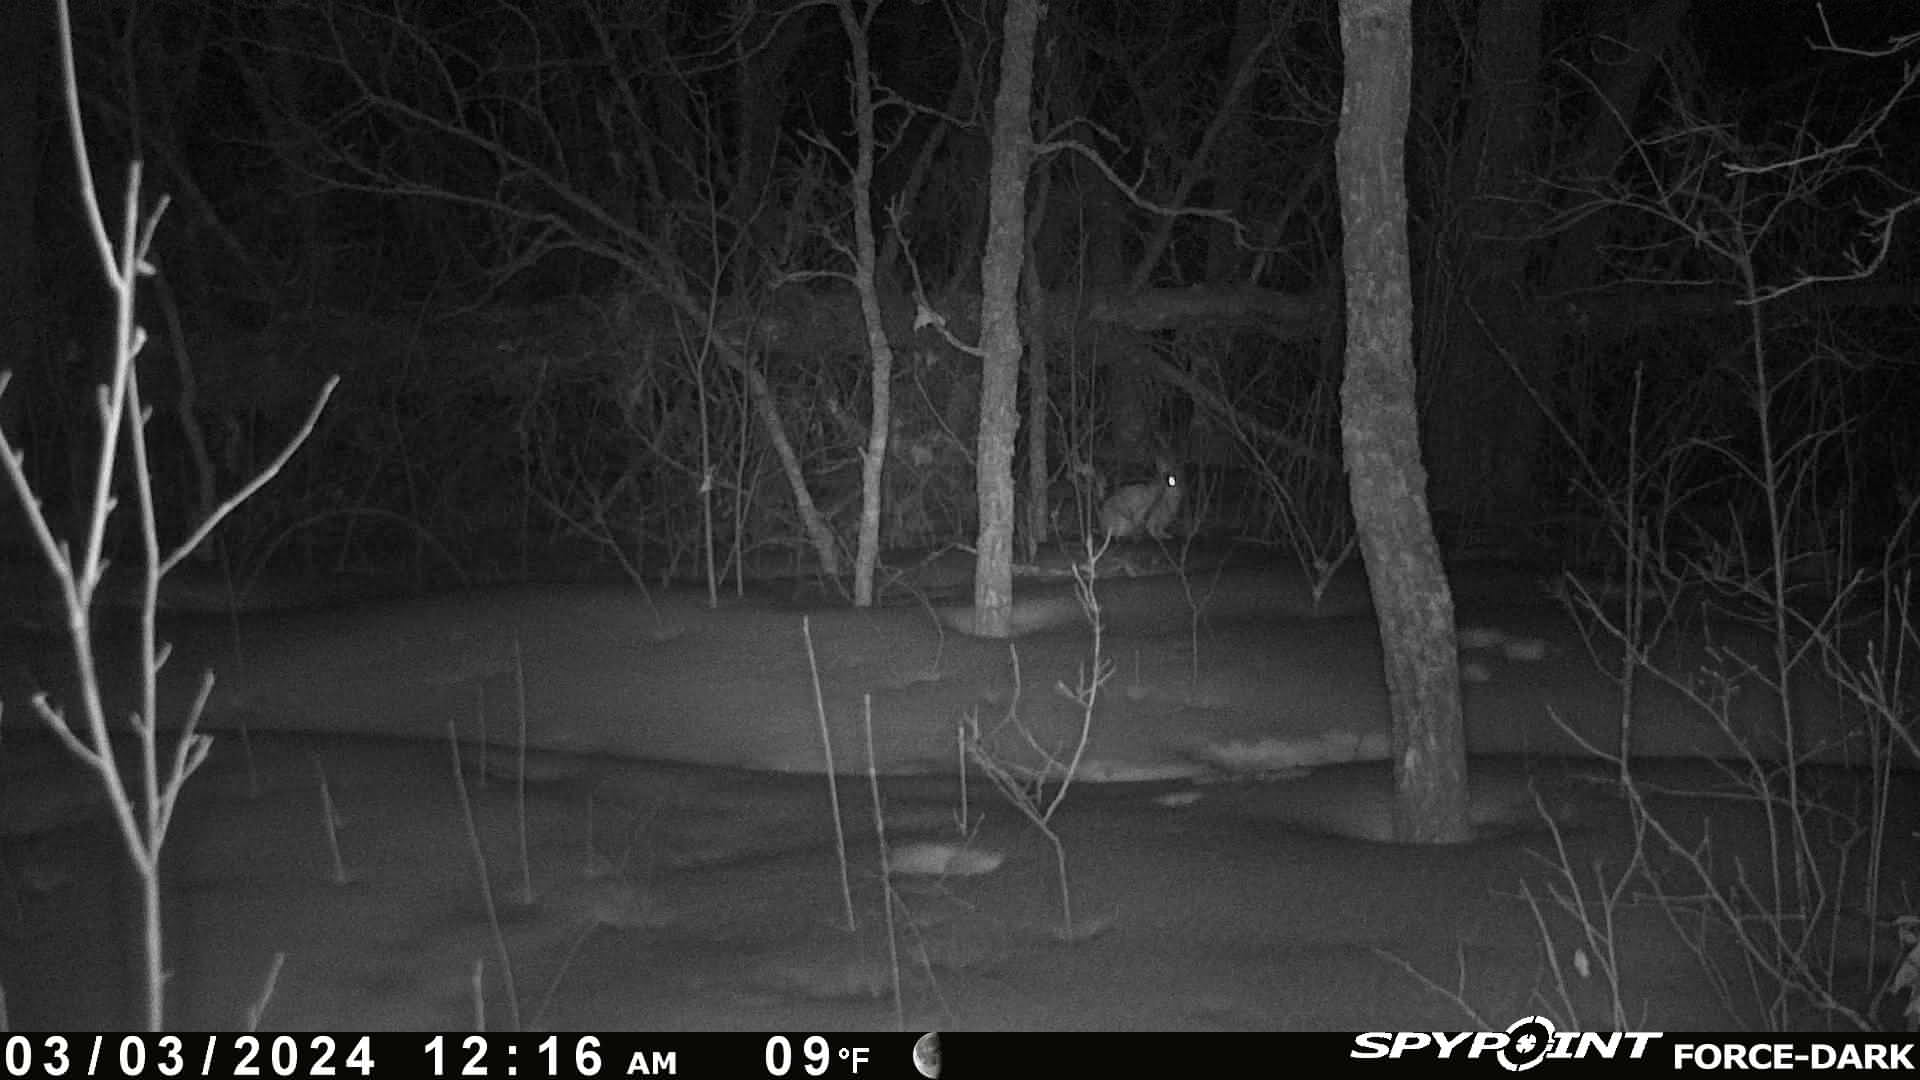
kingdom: Animalia
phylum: Chordata
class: Mammalia
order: Lagomorpha
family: Leporidae
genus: Lepus
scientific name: Lepus americanus
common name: Snowshoe hare
